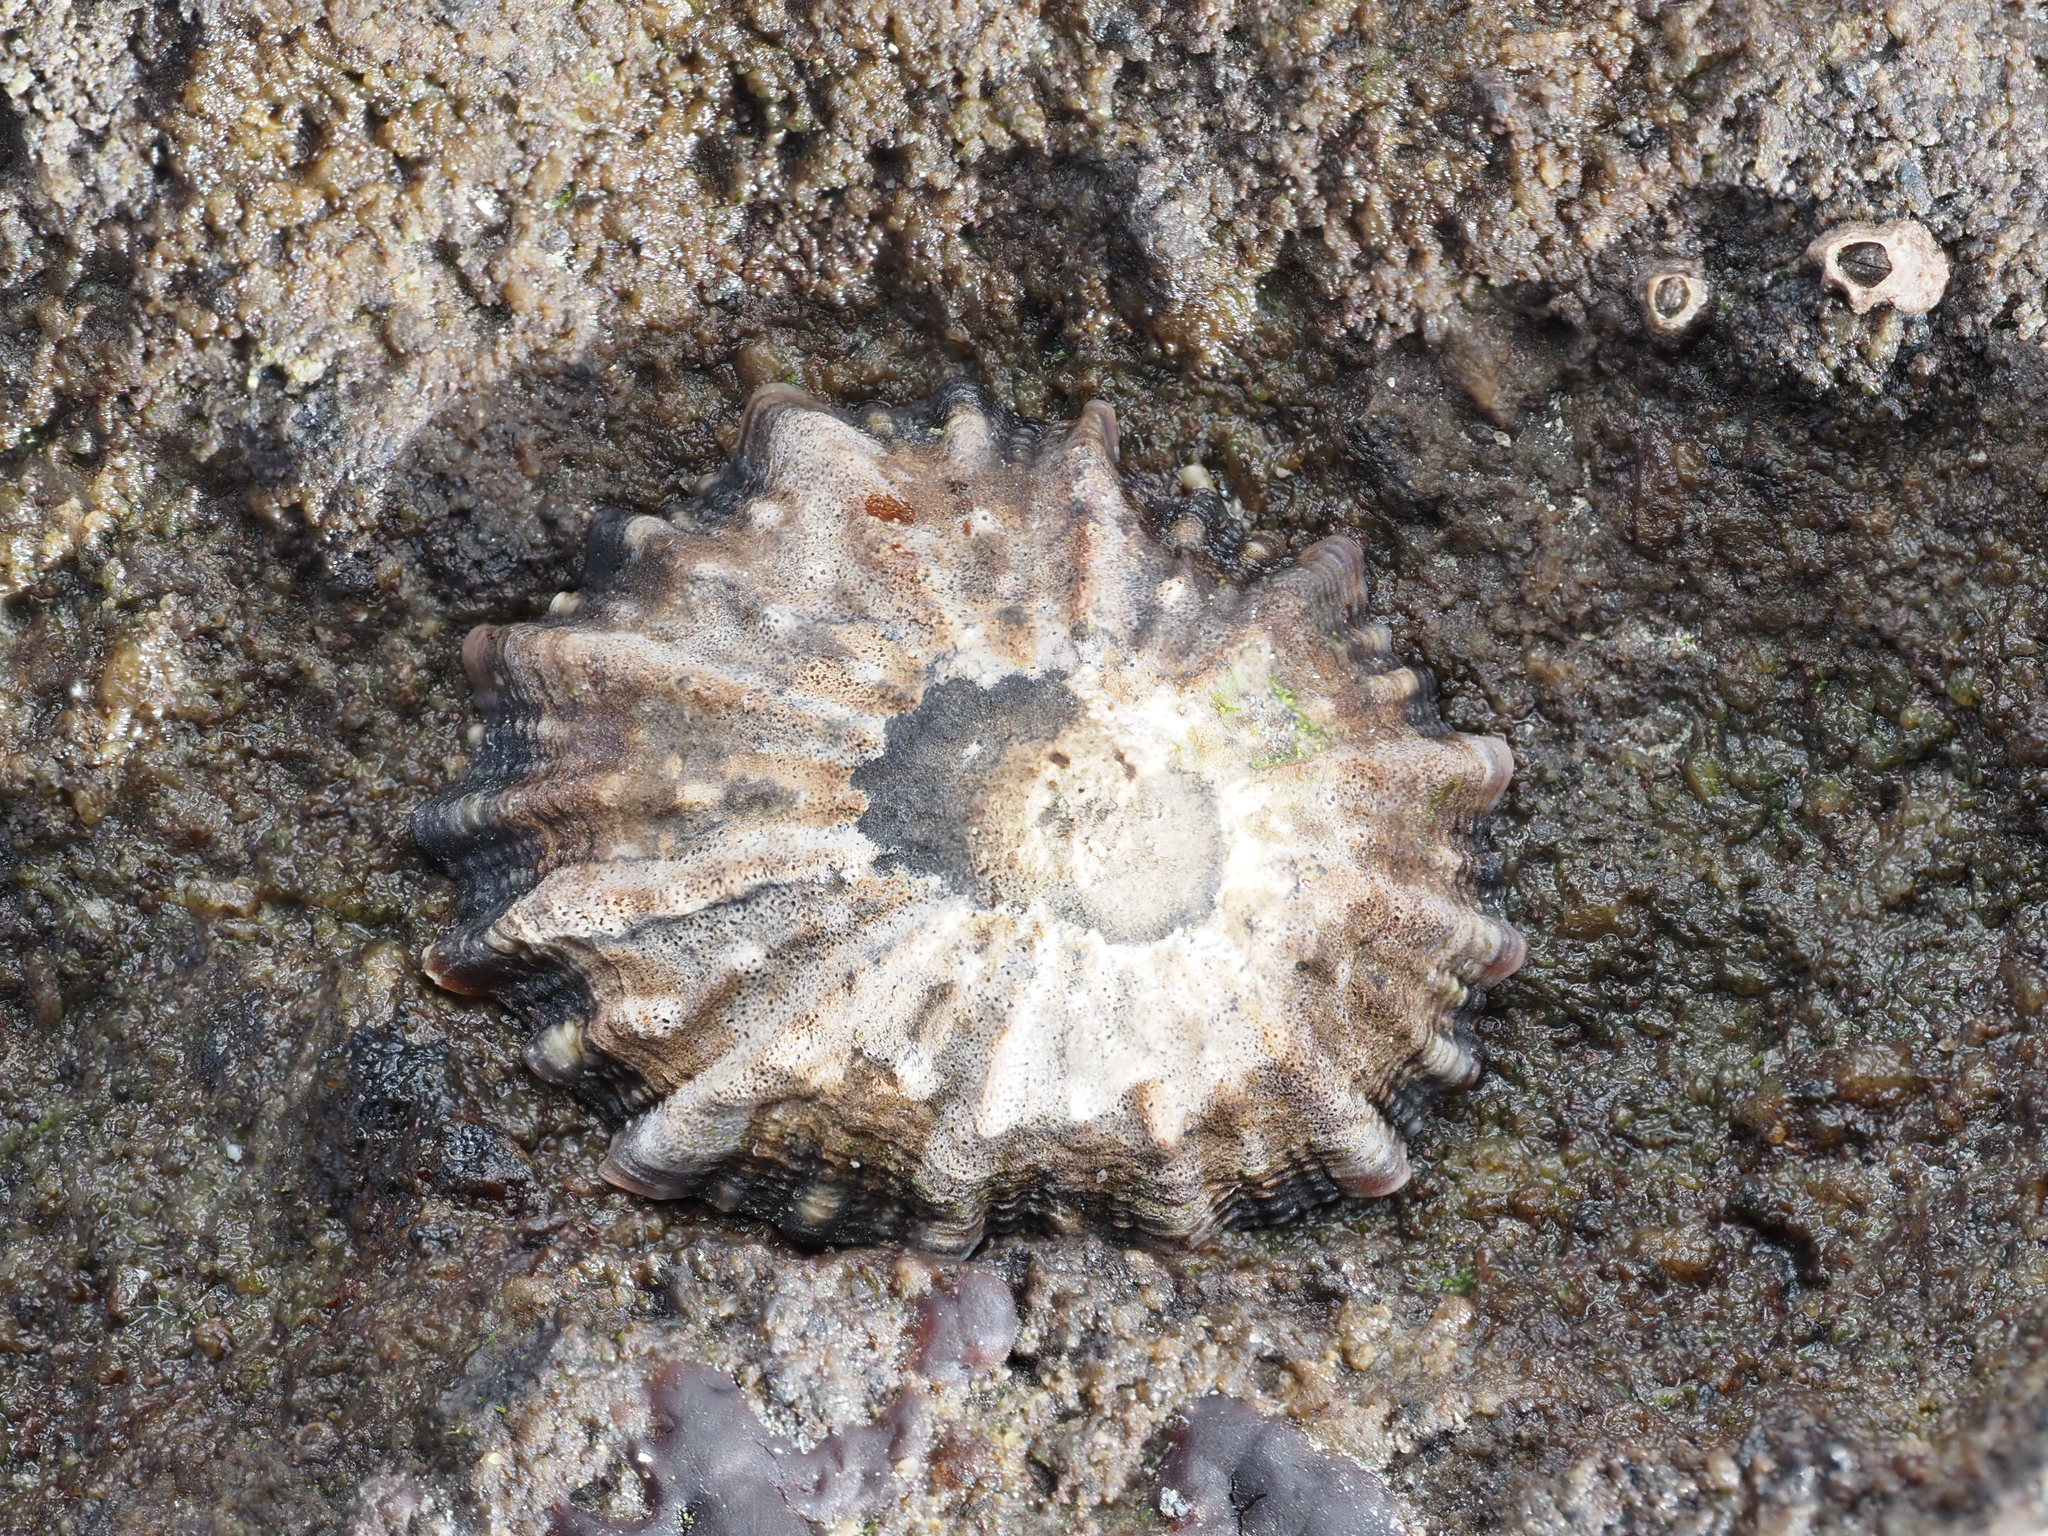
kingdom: Animalia
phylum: Mollusca
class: Gastropoda
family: Nacellidae
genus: Cellana
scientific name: Cellana ornata
